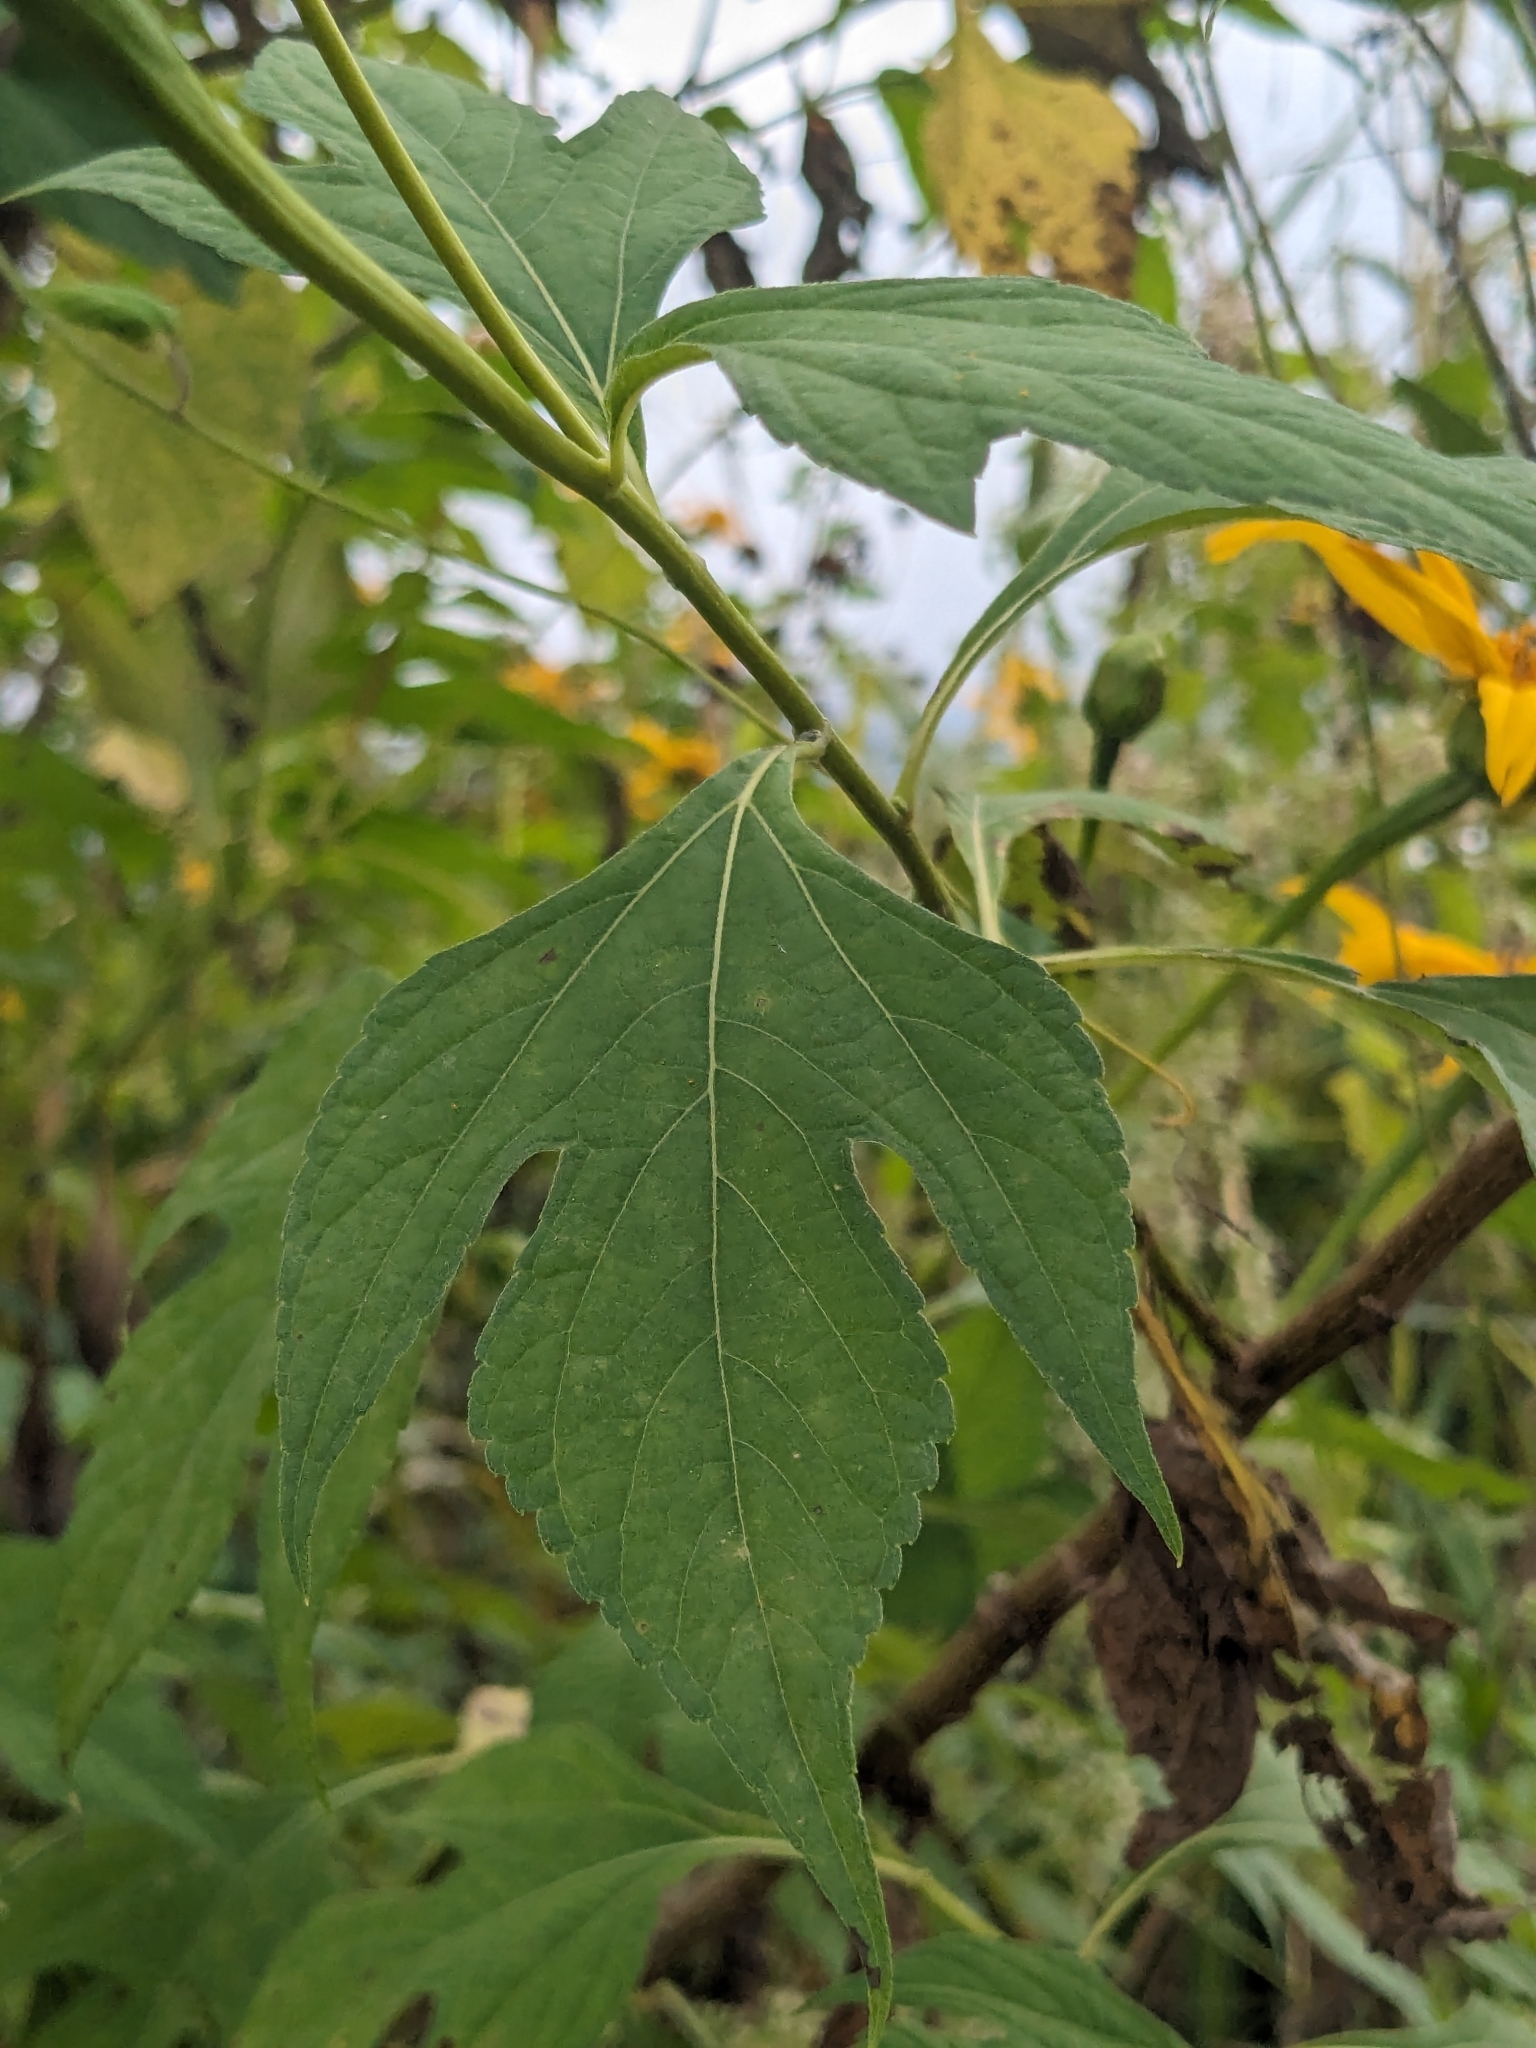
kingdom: Plantae
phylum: Tracheophyta
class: Magnoliopsida
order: Asterales
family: Asteraceae
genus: Tithonia
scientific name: Tithonia diversifolia
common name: Tree marigold
